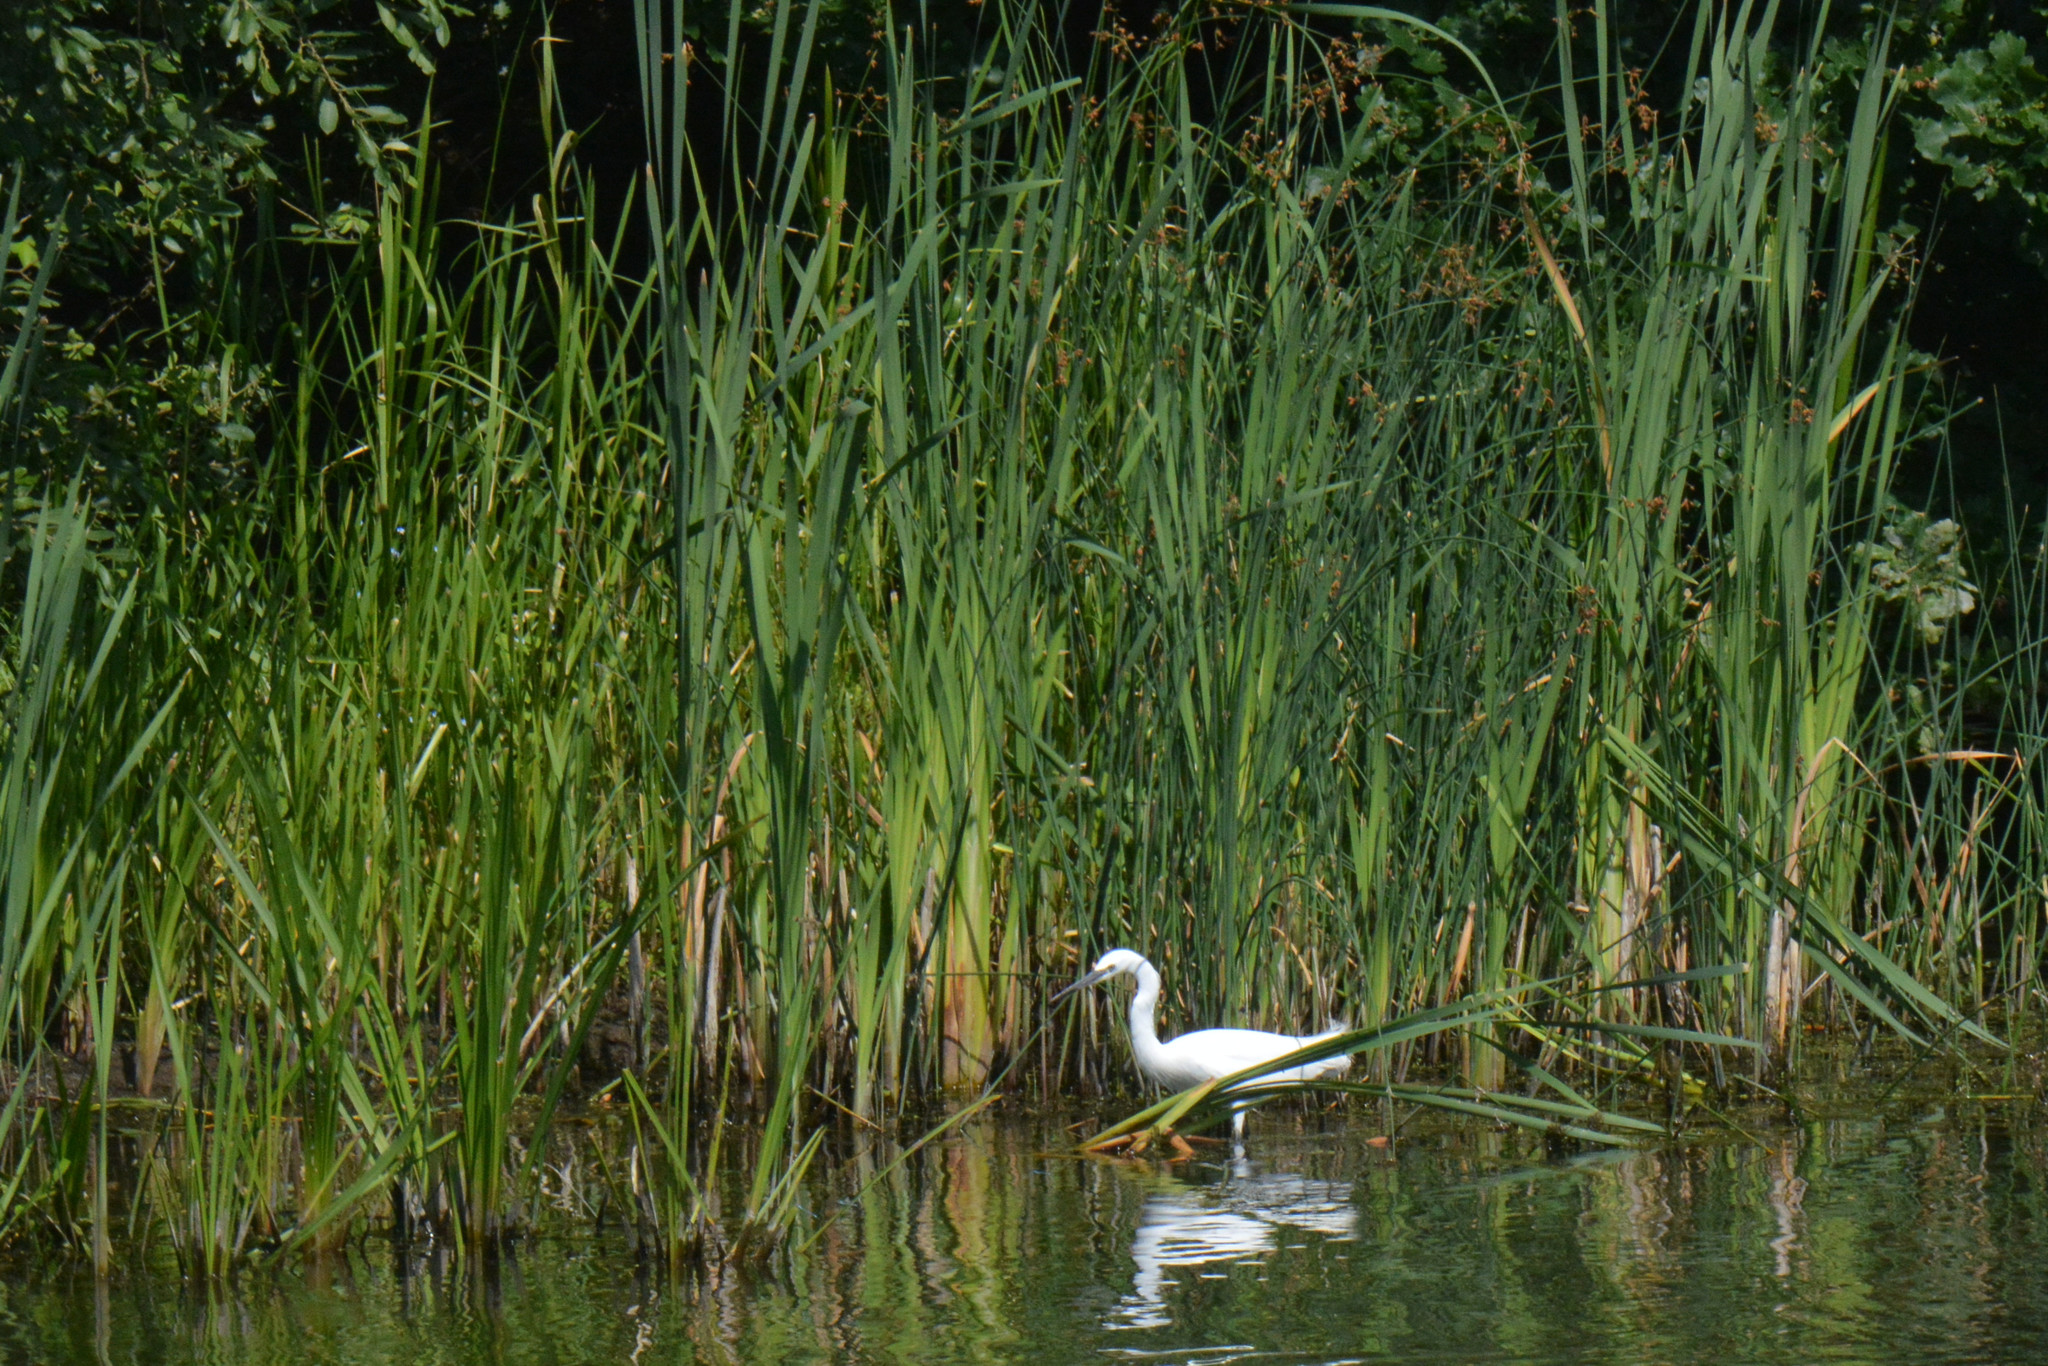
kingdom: Animalia
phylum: Chordata
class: Aves
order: Pelecaniformes
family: Ardeidae
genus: Egretta
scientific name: Egretta garzetta
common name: Little egret
